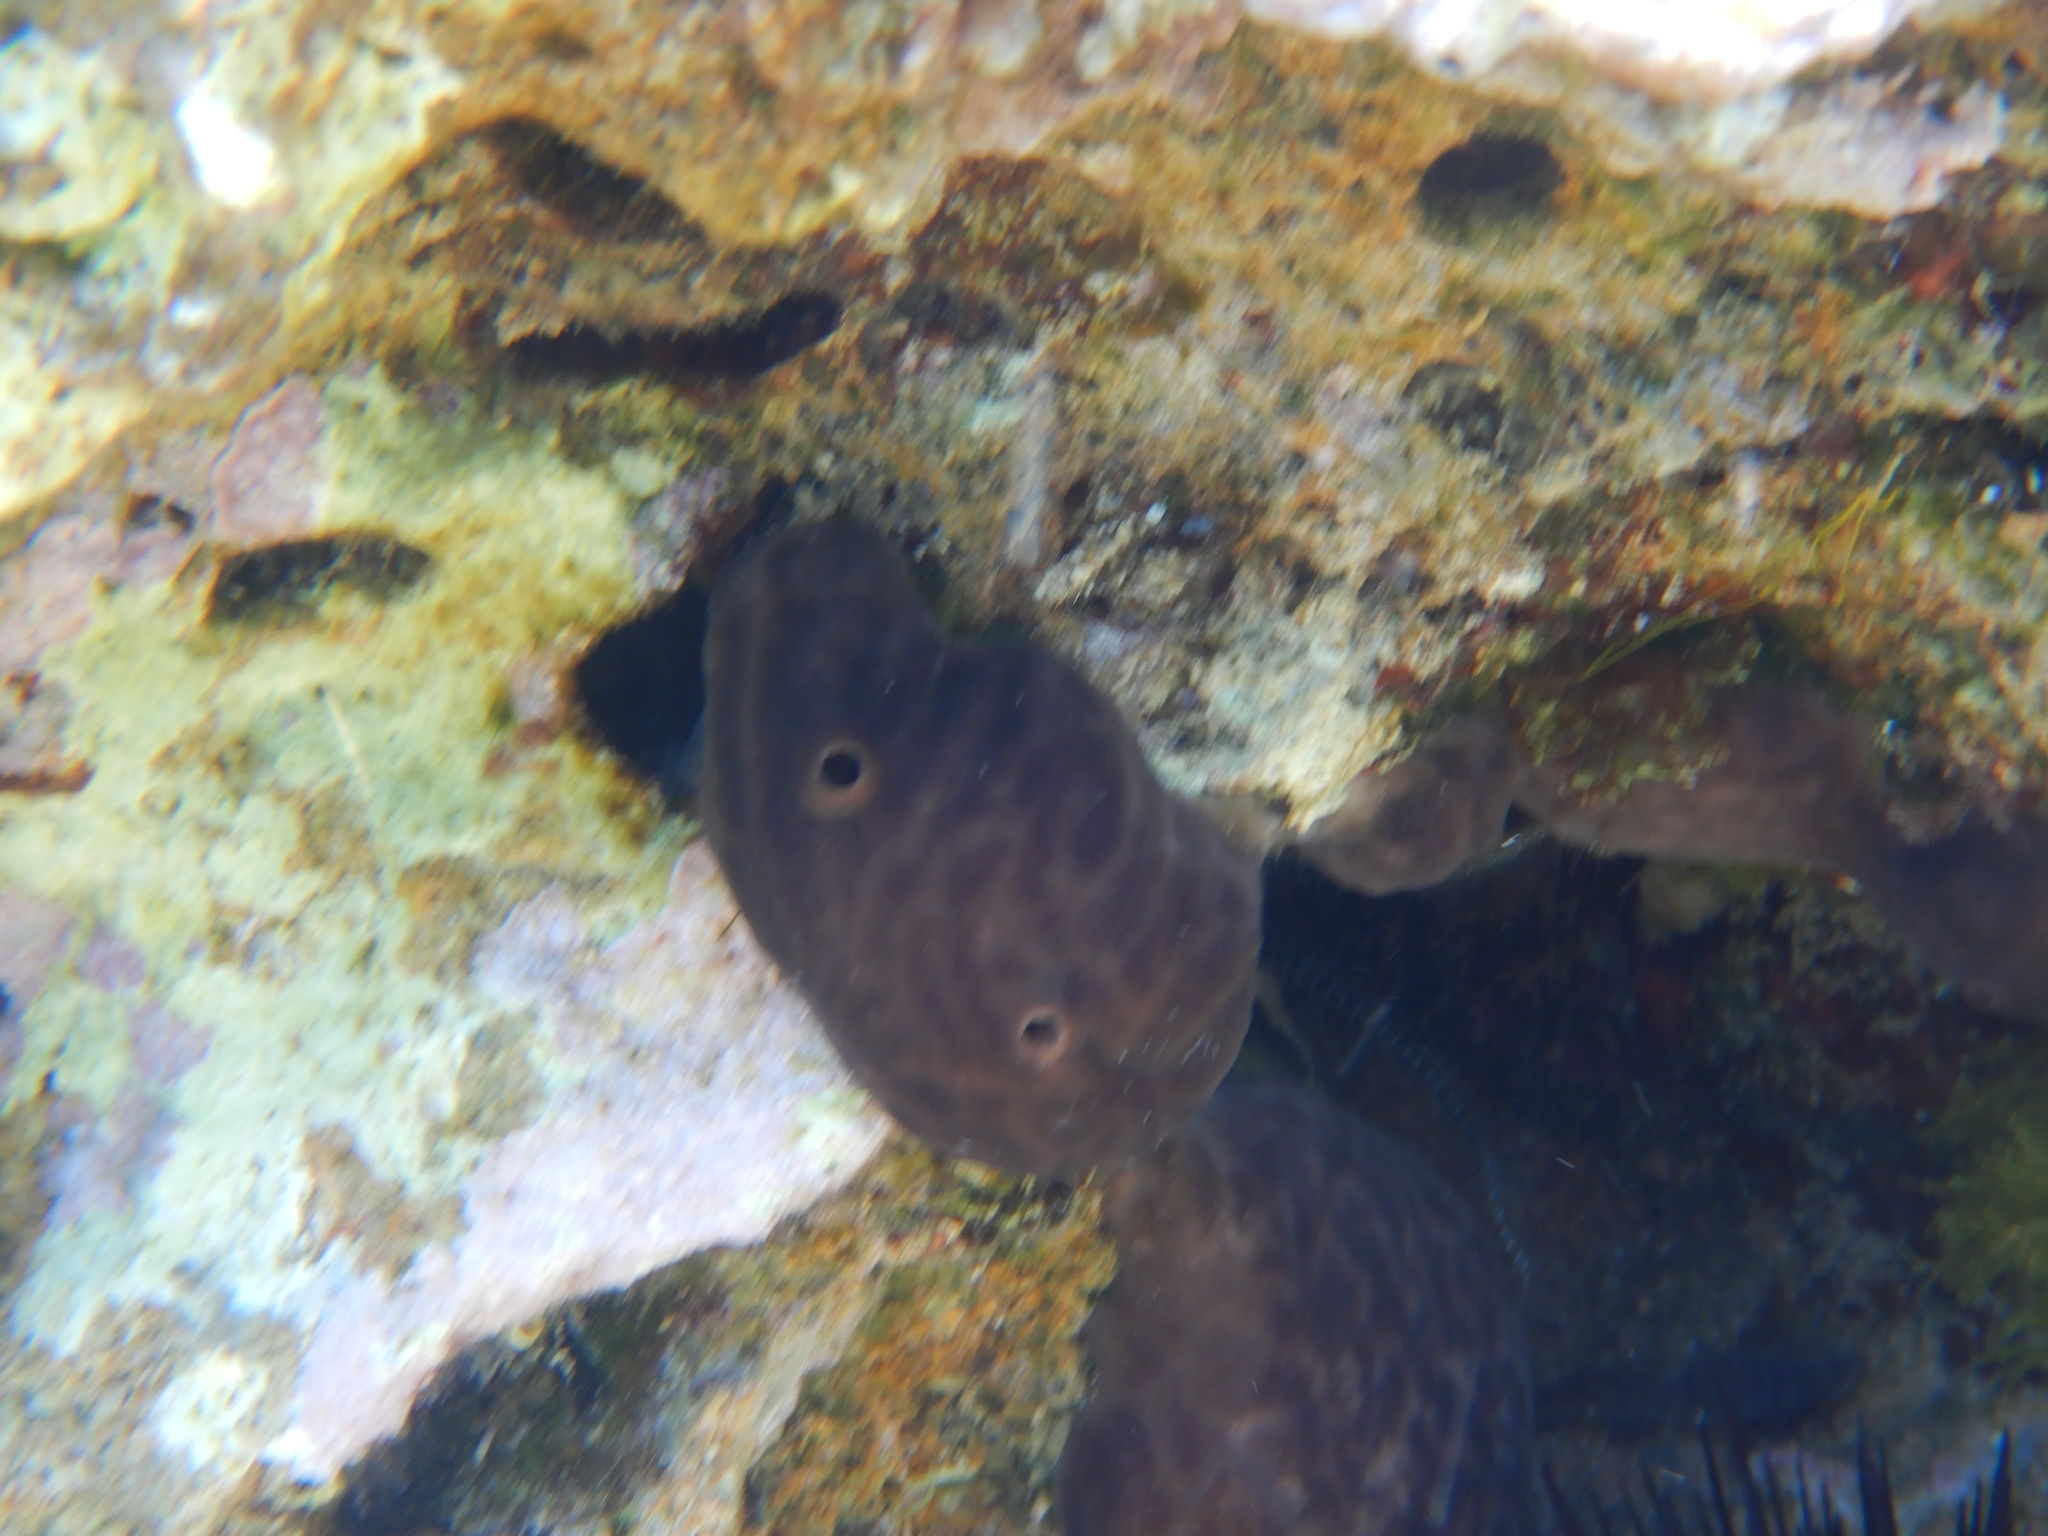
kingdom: Animalia
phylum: Porifera
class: Demospongiae
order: Chondrosiida
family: Chondrosiidae
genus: Chondrosia
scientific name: Chondrosia reniformis
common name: Chicken liver sponge
